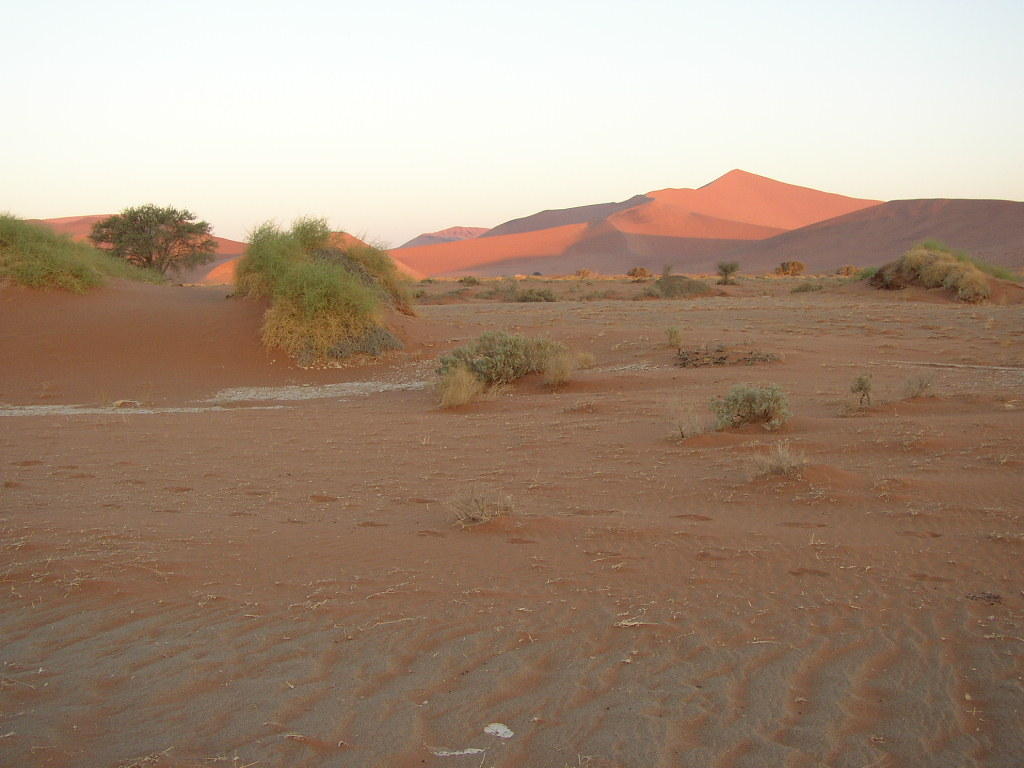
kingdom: Plantae
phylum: Tracheophyta
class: Magnoliopsida
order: Cucurbitales
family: Cucurbitaceae
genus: Acanthosicyos
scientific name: Acanthosicyos horridus
